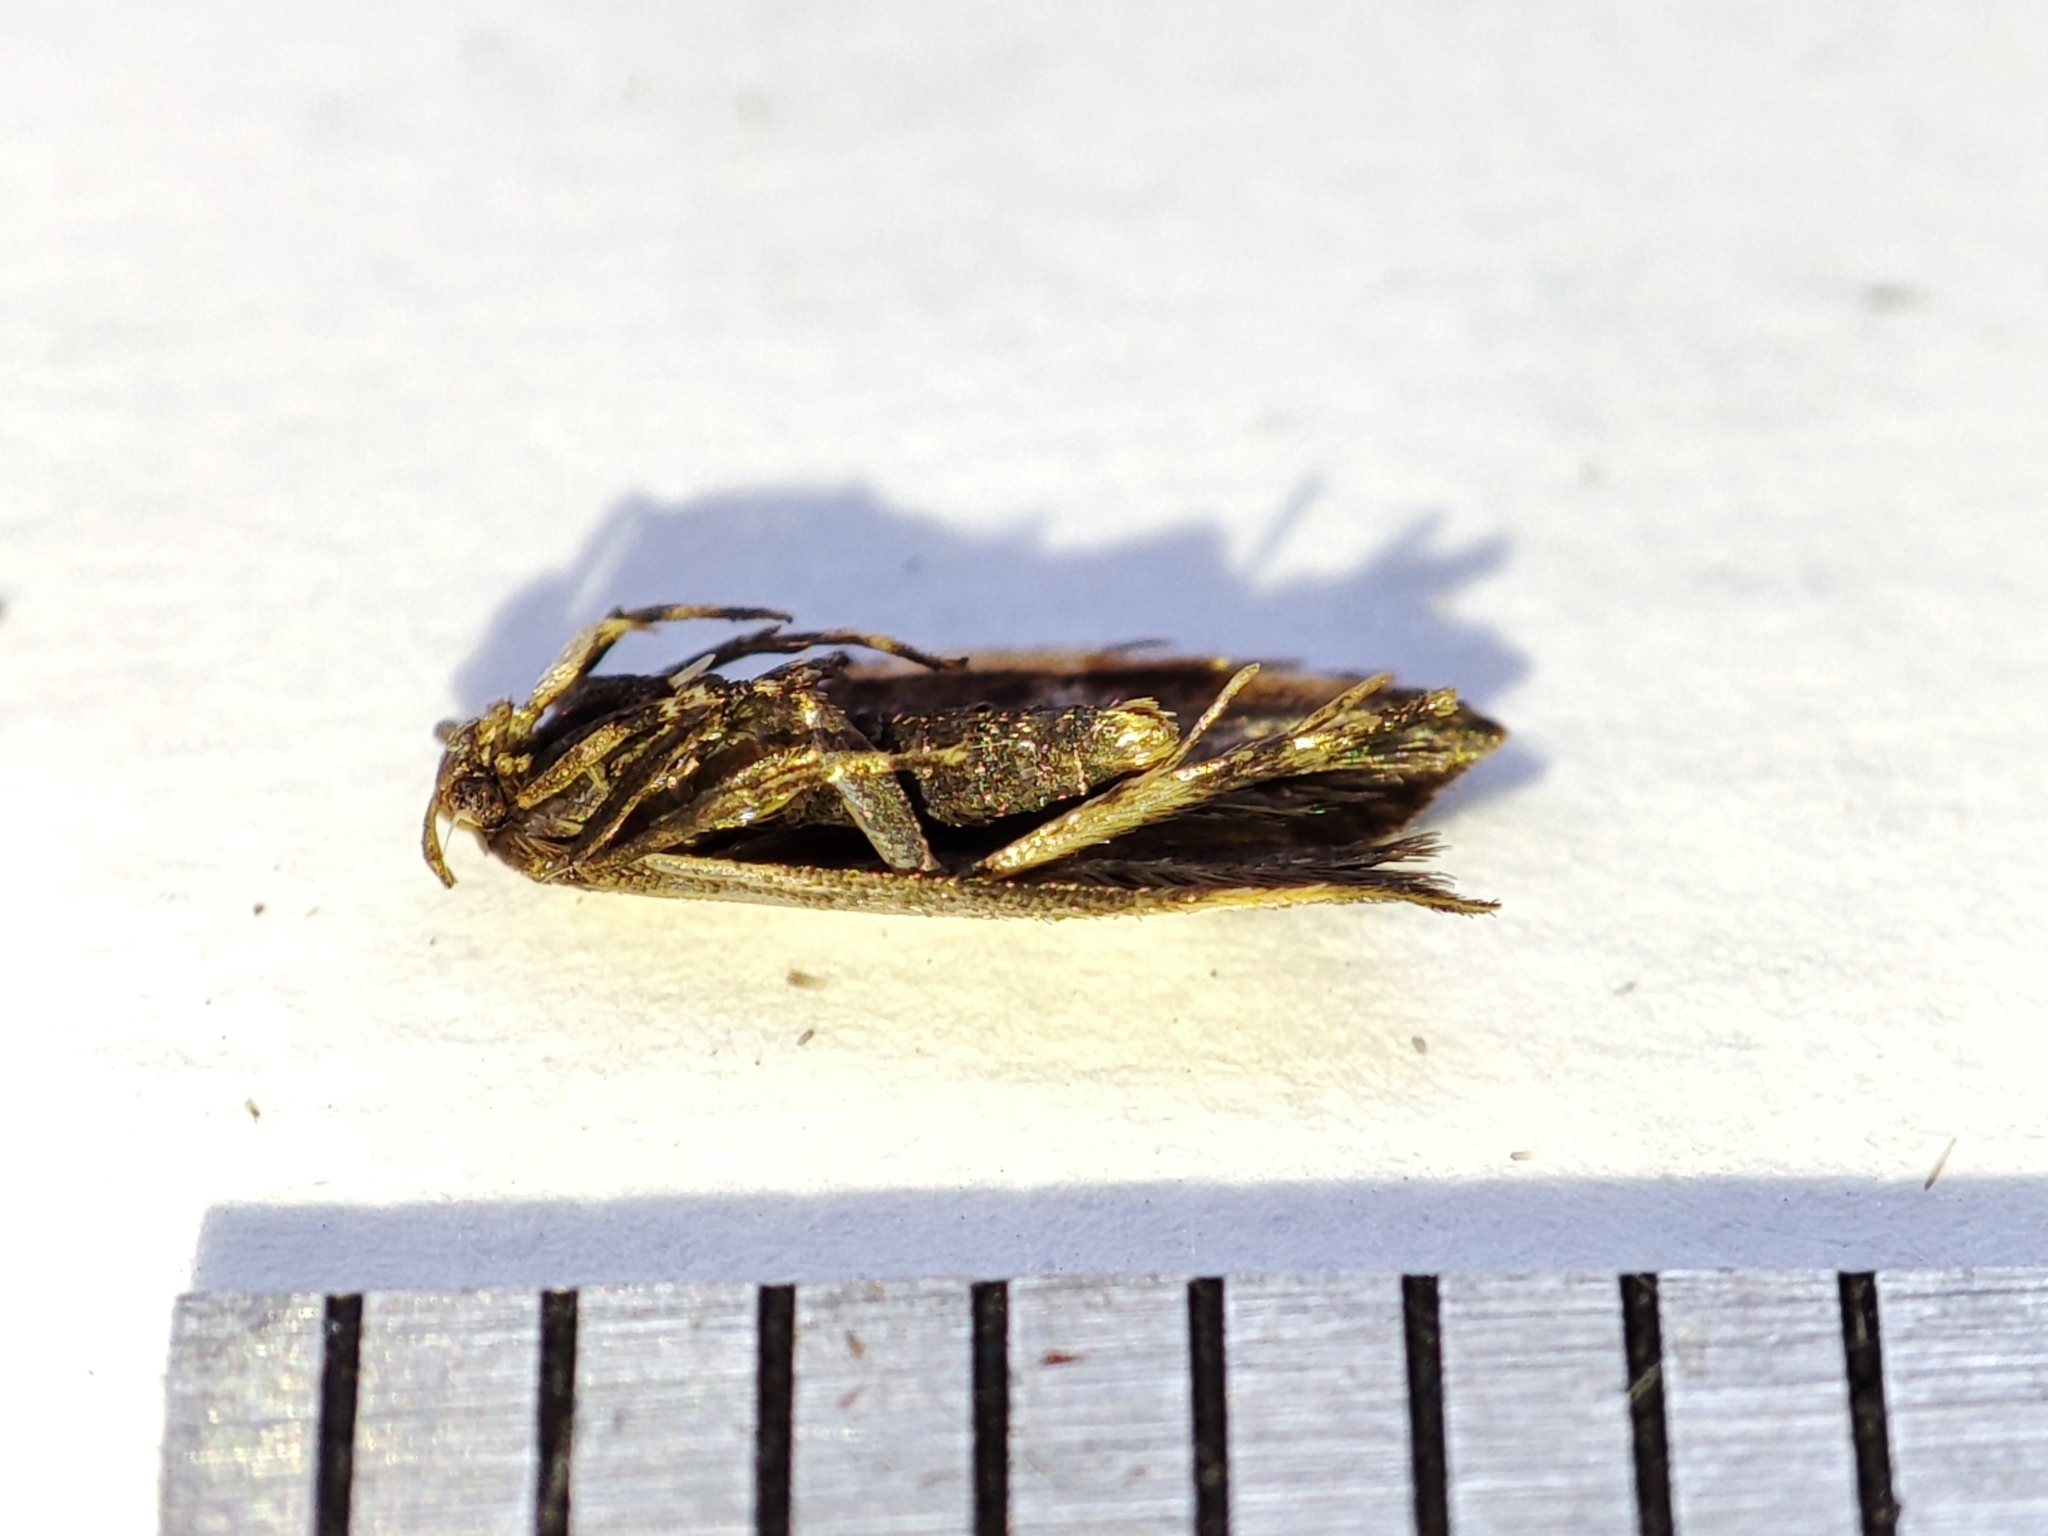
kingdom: Animalia
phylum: Arthropoda
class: Insecta
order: Lepidoptera
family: Gelechiidae
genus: Brachmia
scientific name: Brachmia dimidiella
